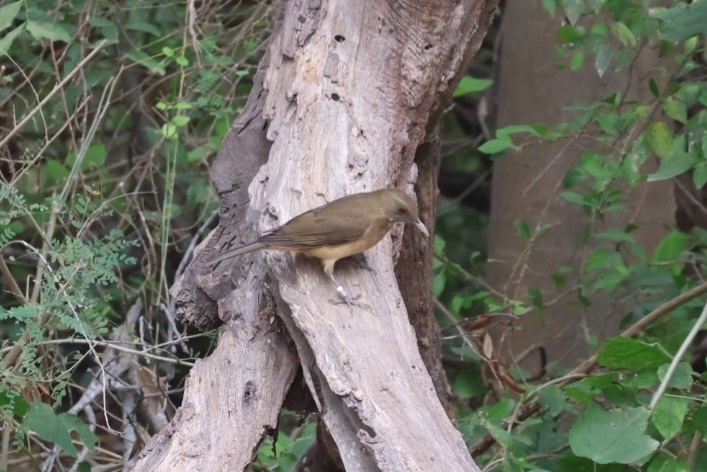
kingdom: Animalia
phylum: Chordata
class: Aves
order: Passeriformes
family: Turdidae
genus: Turdus
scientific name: Turdus grayi
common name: Clay-colored thrush
